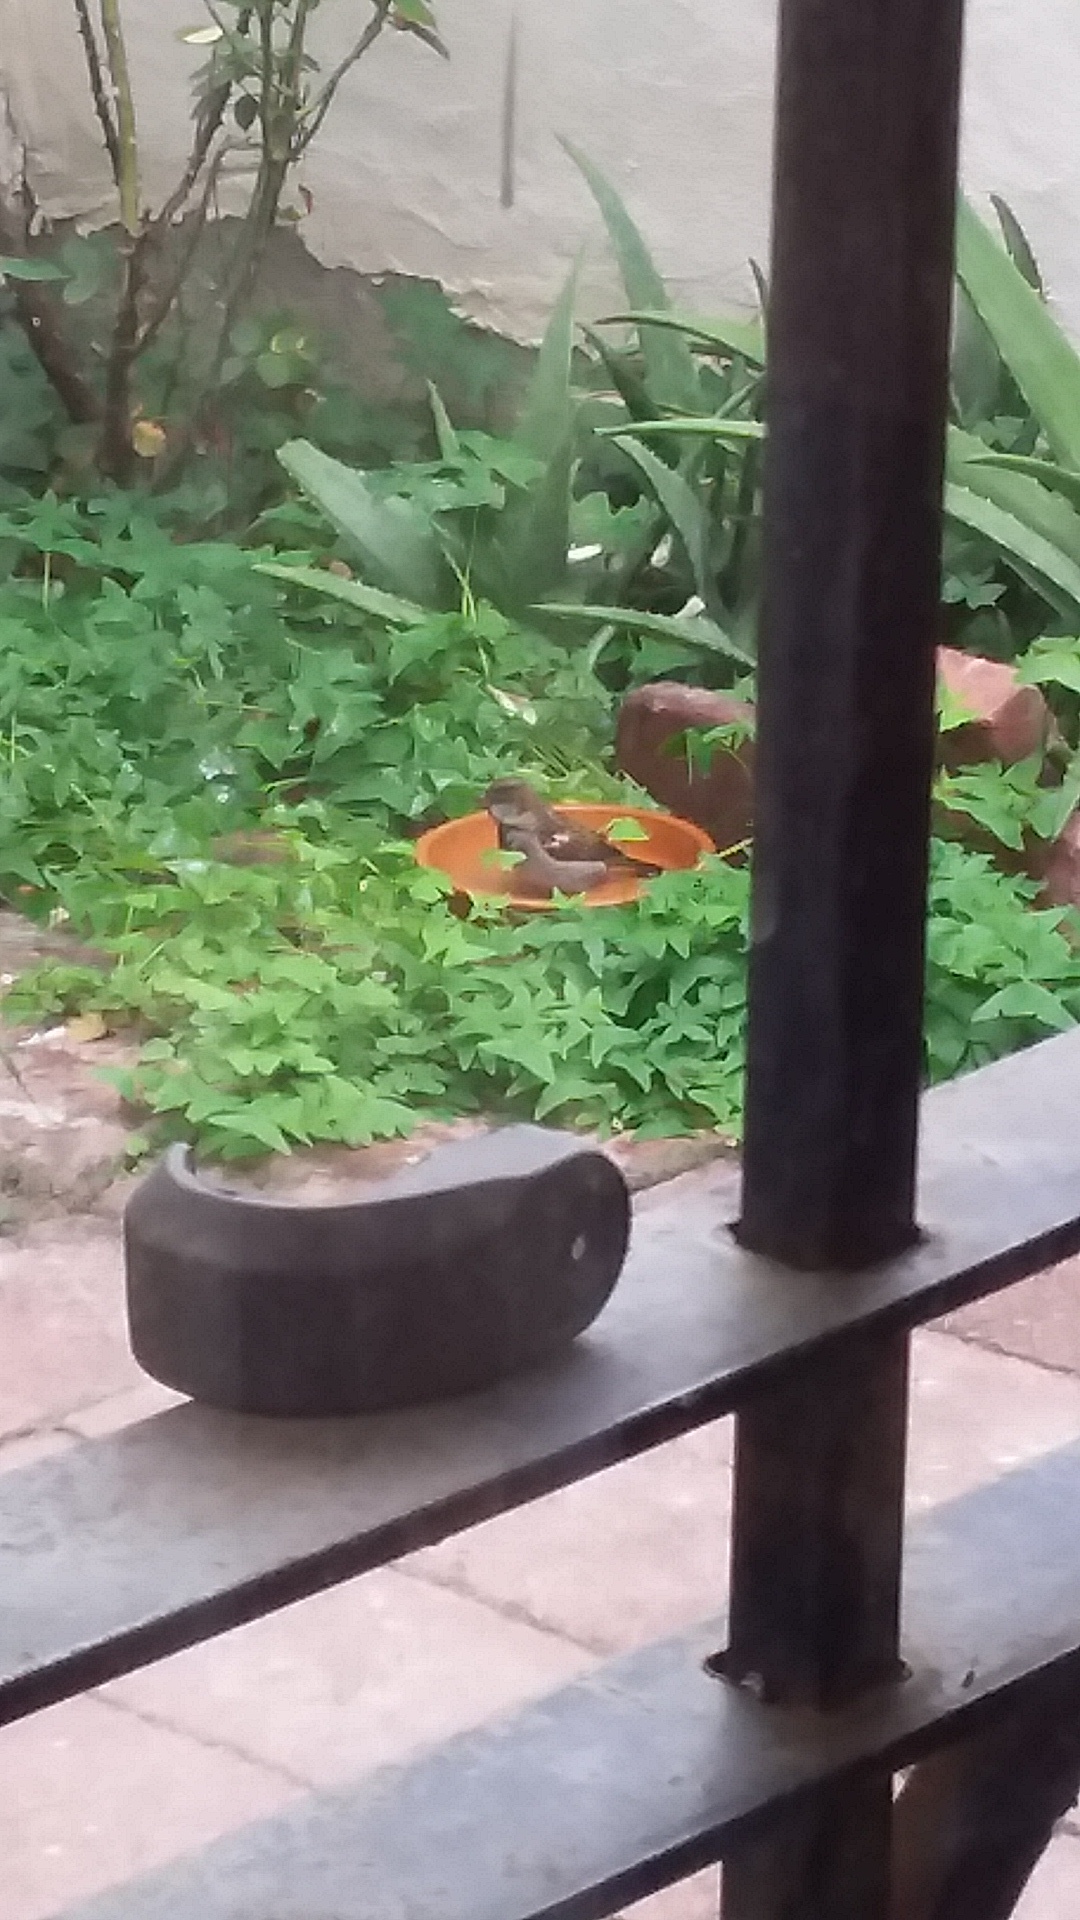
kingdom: Animalia
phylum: Chordata
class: Aves
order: Passeriformes
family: Passeridae
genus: Passer
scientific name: Passer domesticus
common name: House sparrow
